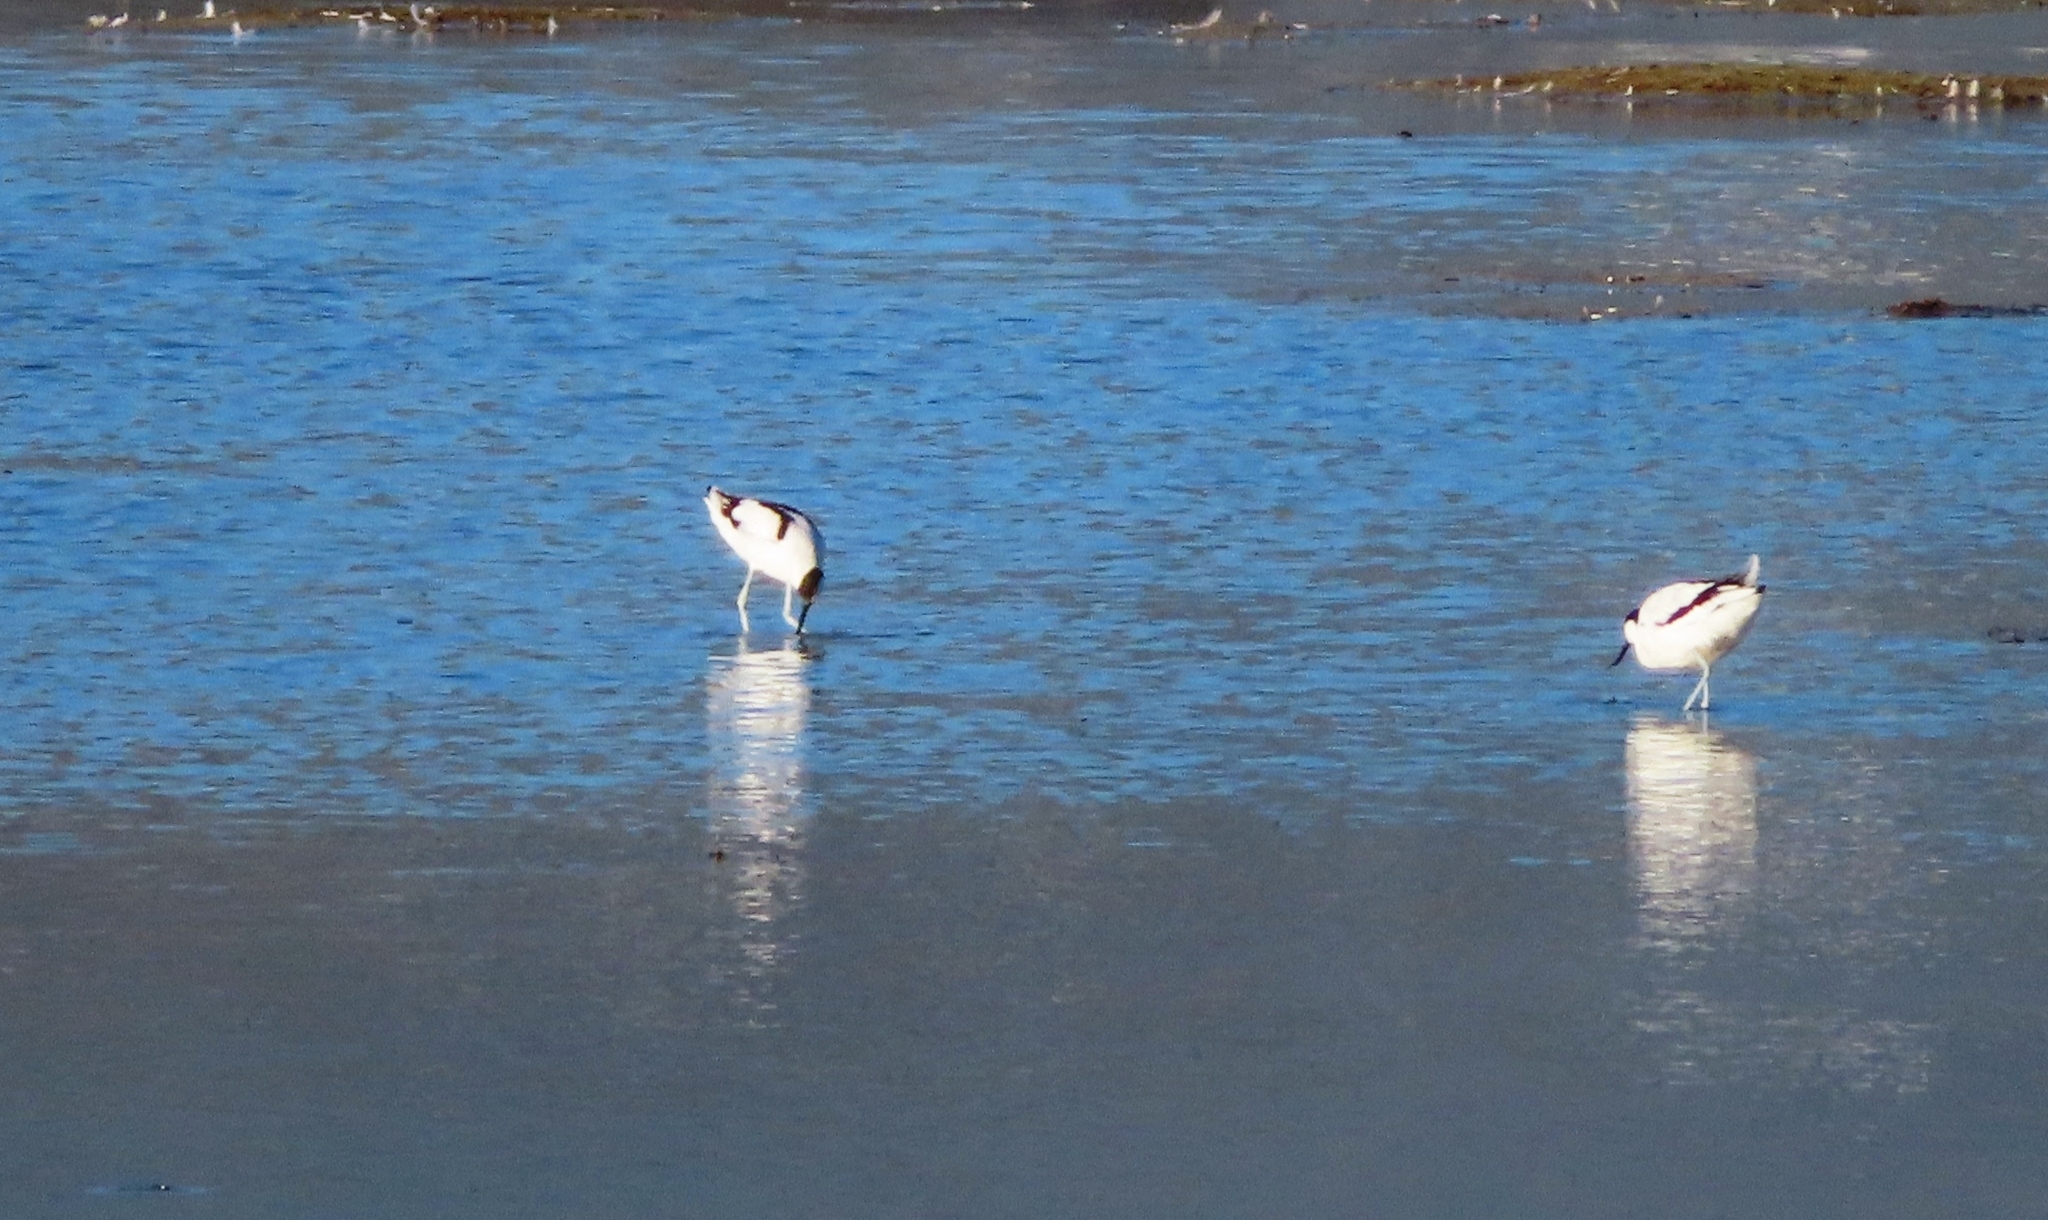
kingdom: Animalia
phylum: Chordata
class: Aves
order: Charadriiformes
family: Recurvirostridae
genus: Recurvirostra
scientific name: Recurvirostra avosetta
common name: Pied avocet
